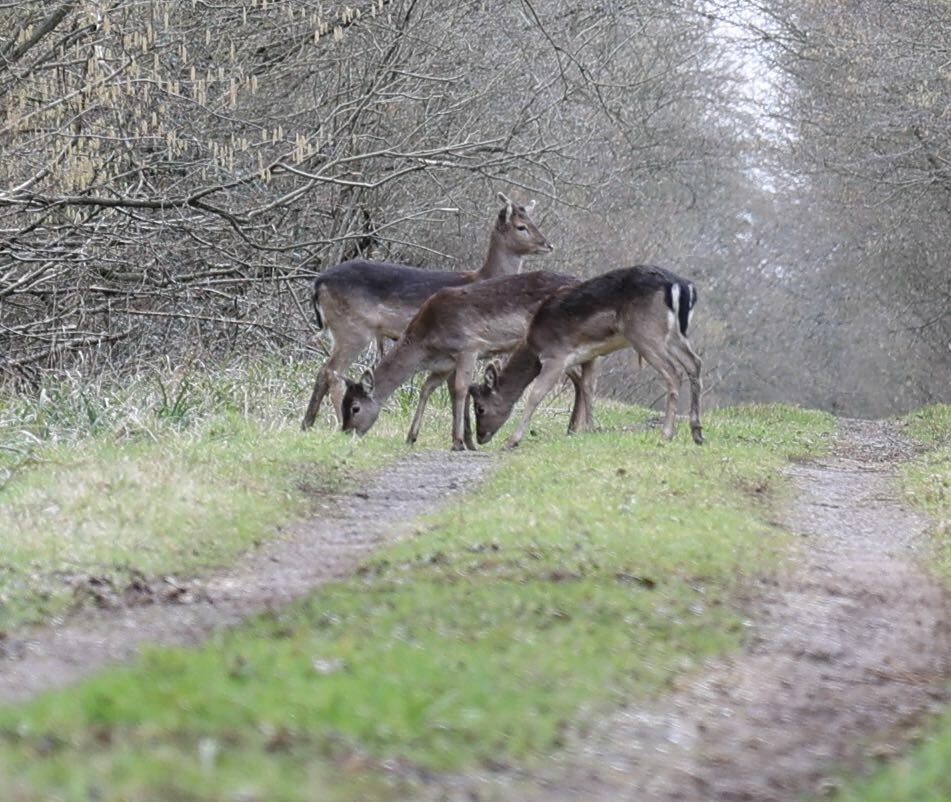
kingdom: Animalia
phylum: Chordata
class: Mammalia
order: Artiodactyla
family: Cervidae
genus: Dama
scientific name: Dama dama
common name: Fallow deer
